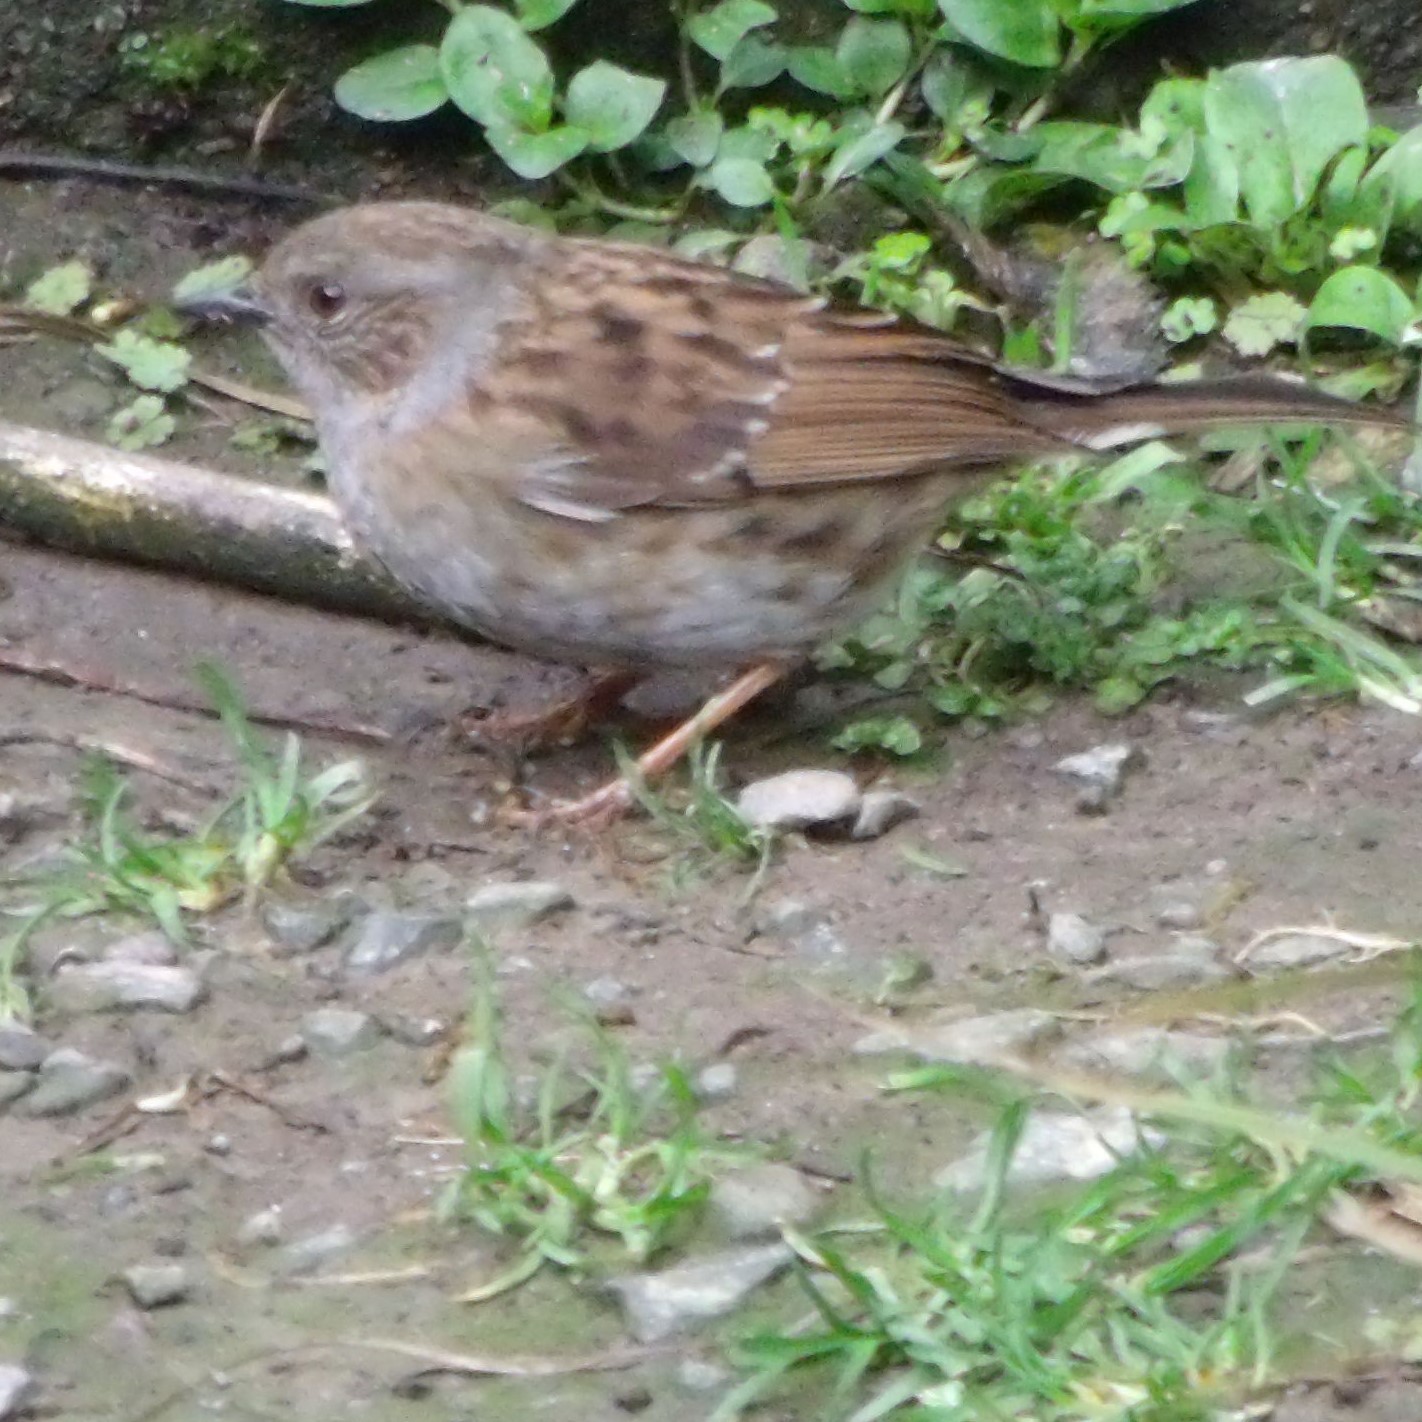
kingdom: Animalia
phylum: Chordata
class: Aves
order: Passeriformes
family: Prunellidae
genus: Prunella
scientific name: Prunella modularis
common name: Dunnock
